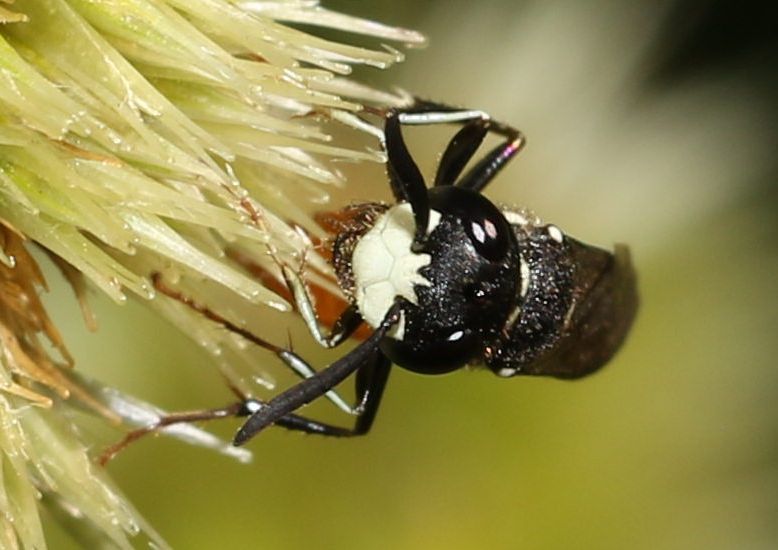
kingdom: Animalia
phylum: Arthropoda
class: Insecta
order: Hymenoptera
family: Crabronidae
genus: Philanthus
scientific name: Philanthus loeflingi
